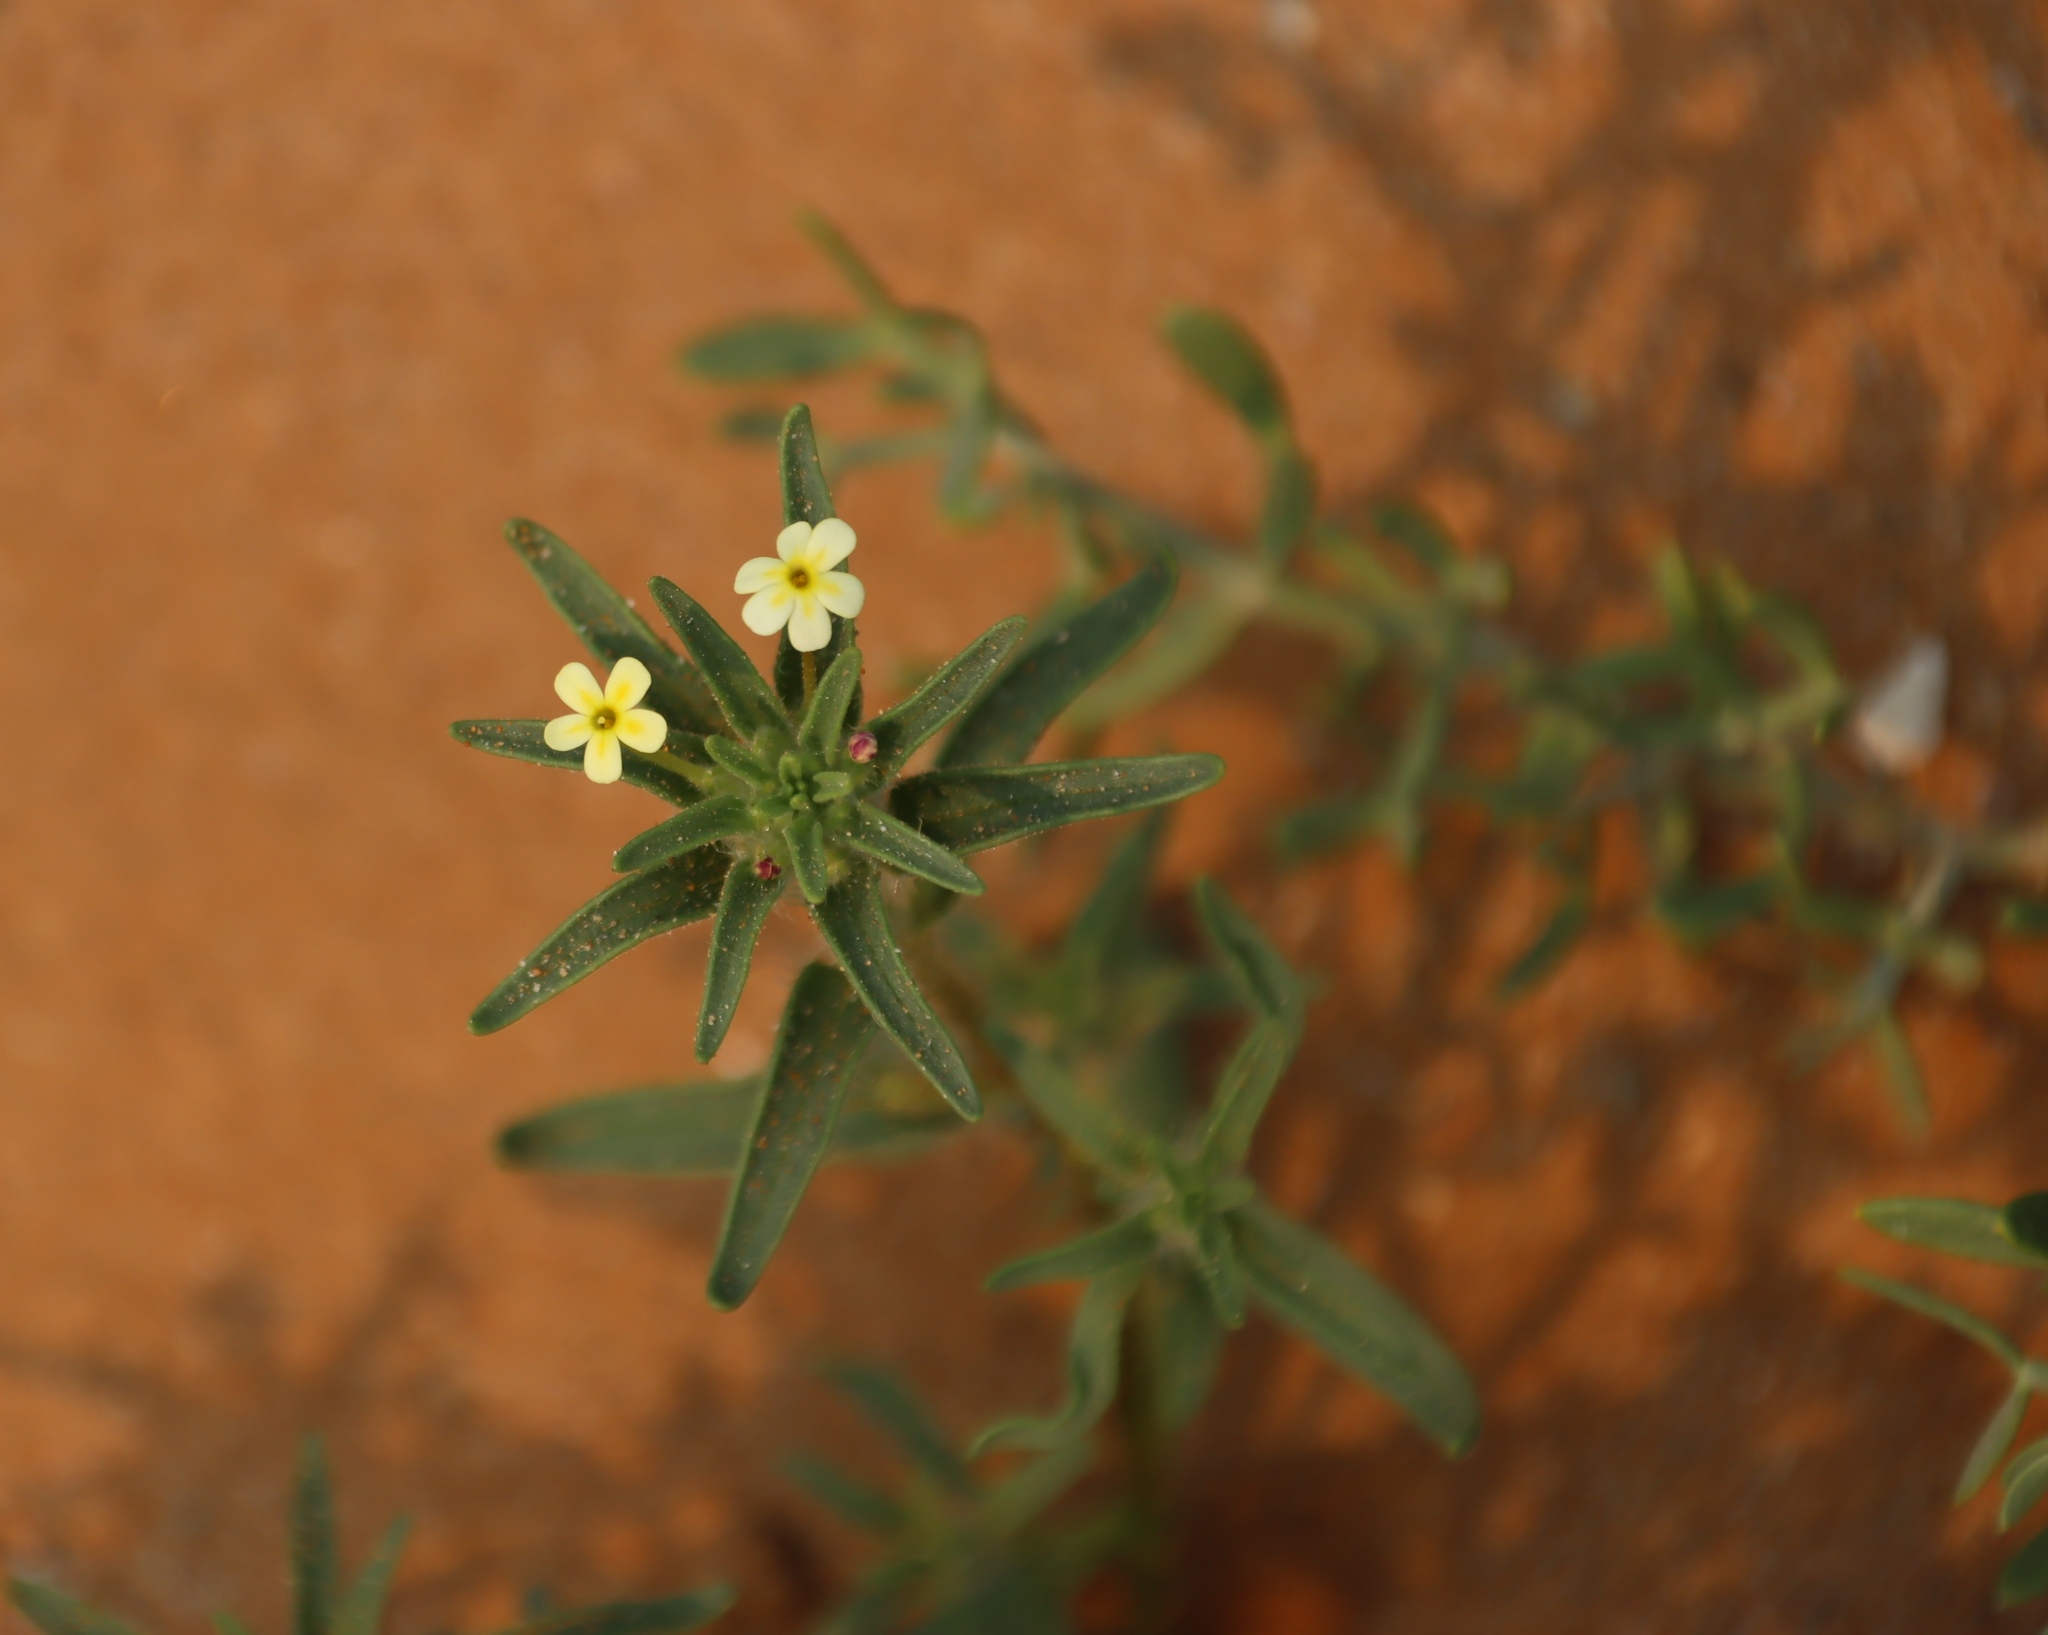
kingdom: Plantae
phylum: Tracheophyta
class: Magnoliopsida
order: Lamiales
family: Scrophulariaceae
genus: Zaluzianskya
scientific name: Zaluzianskya benthamiana
